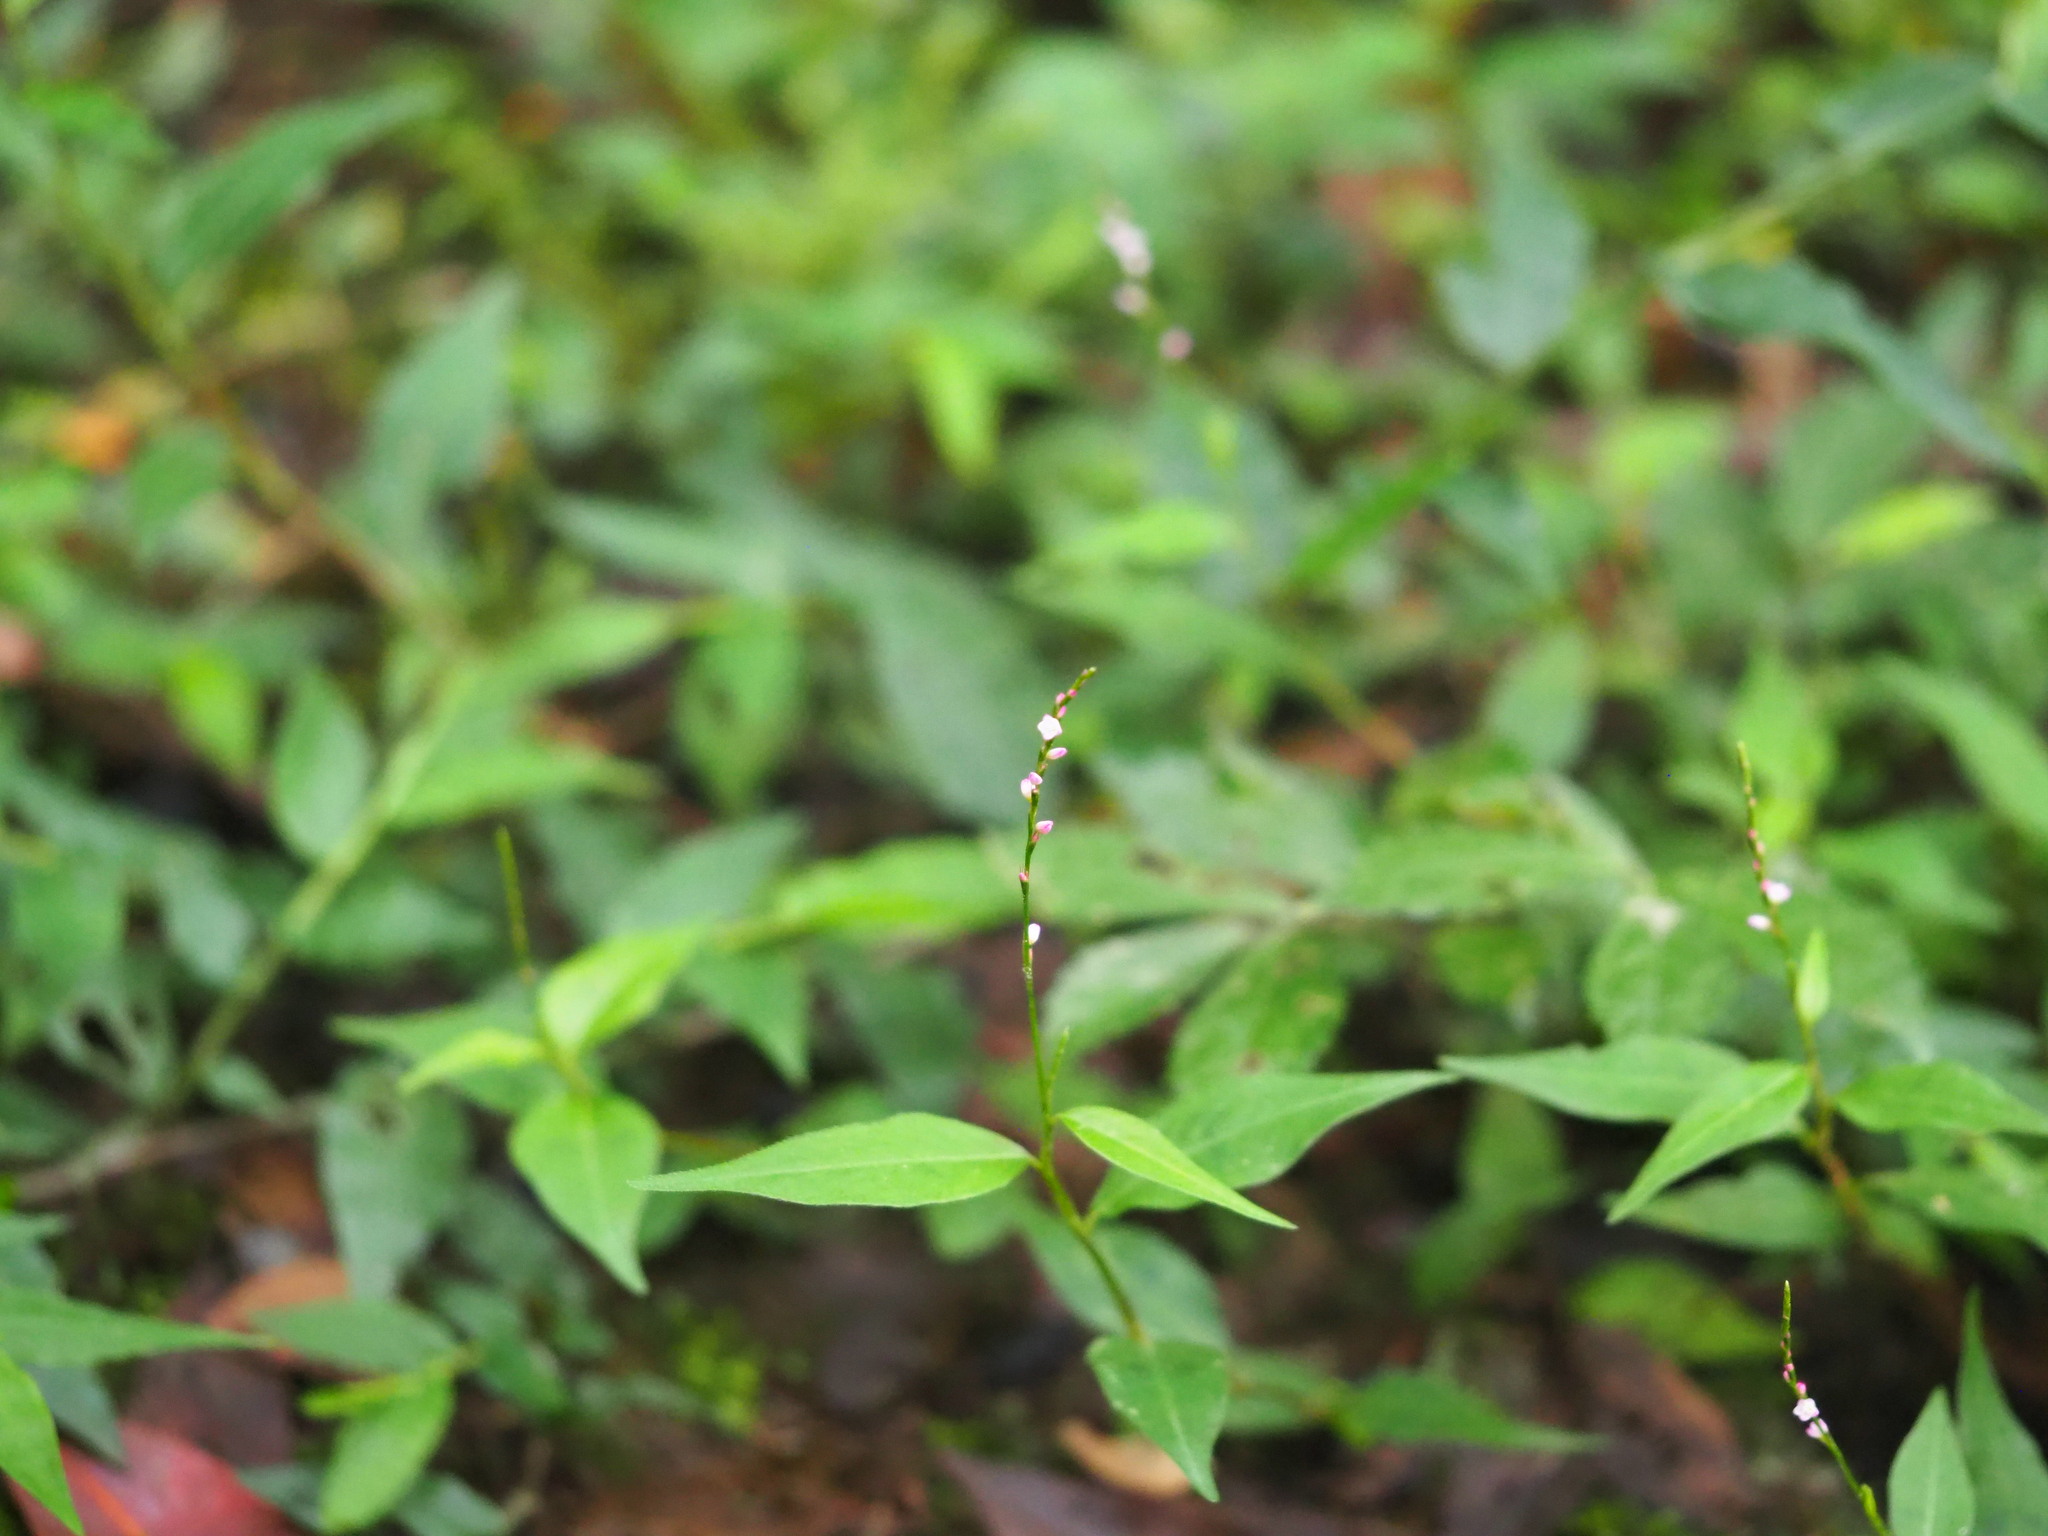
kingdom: Plantae
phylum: Tracheophyta
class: Magnoliopsida
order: Caryophyllales
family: Polygonaceae
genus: Persicaria
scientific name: Persicaria posumbu
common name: Oriental lady's thumb
